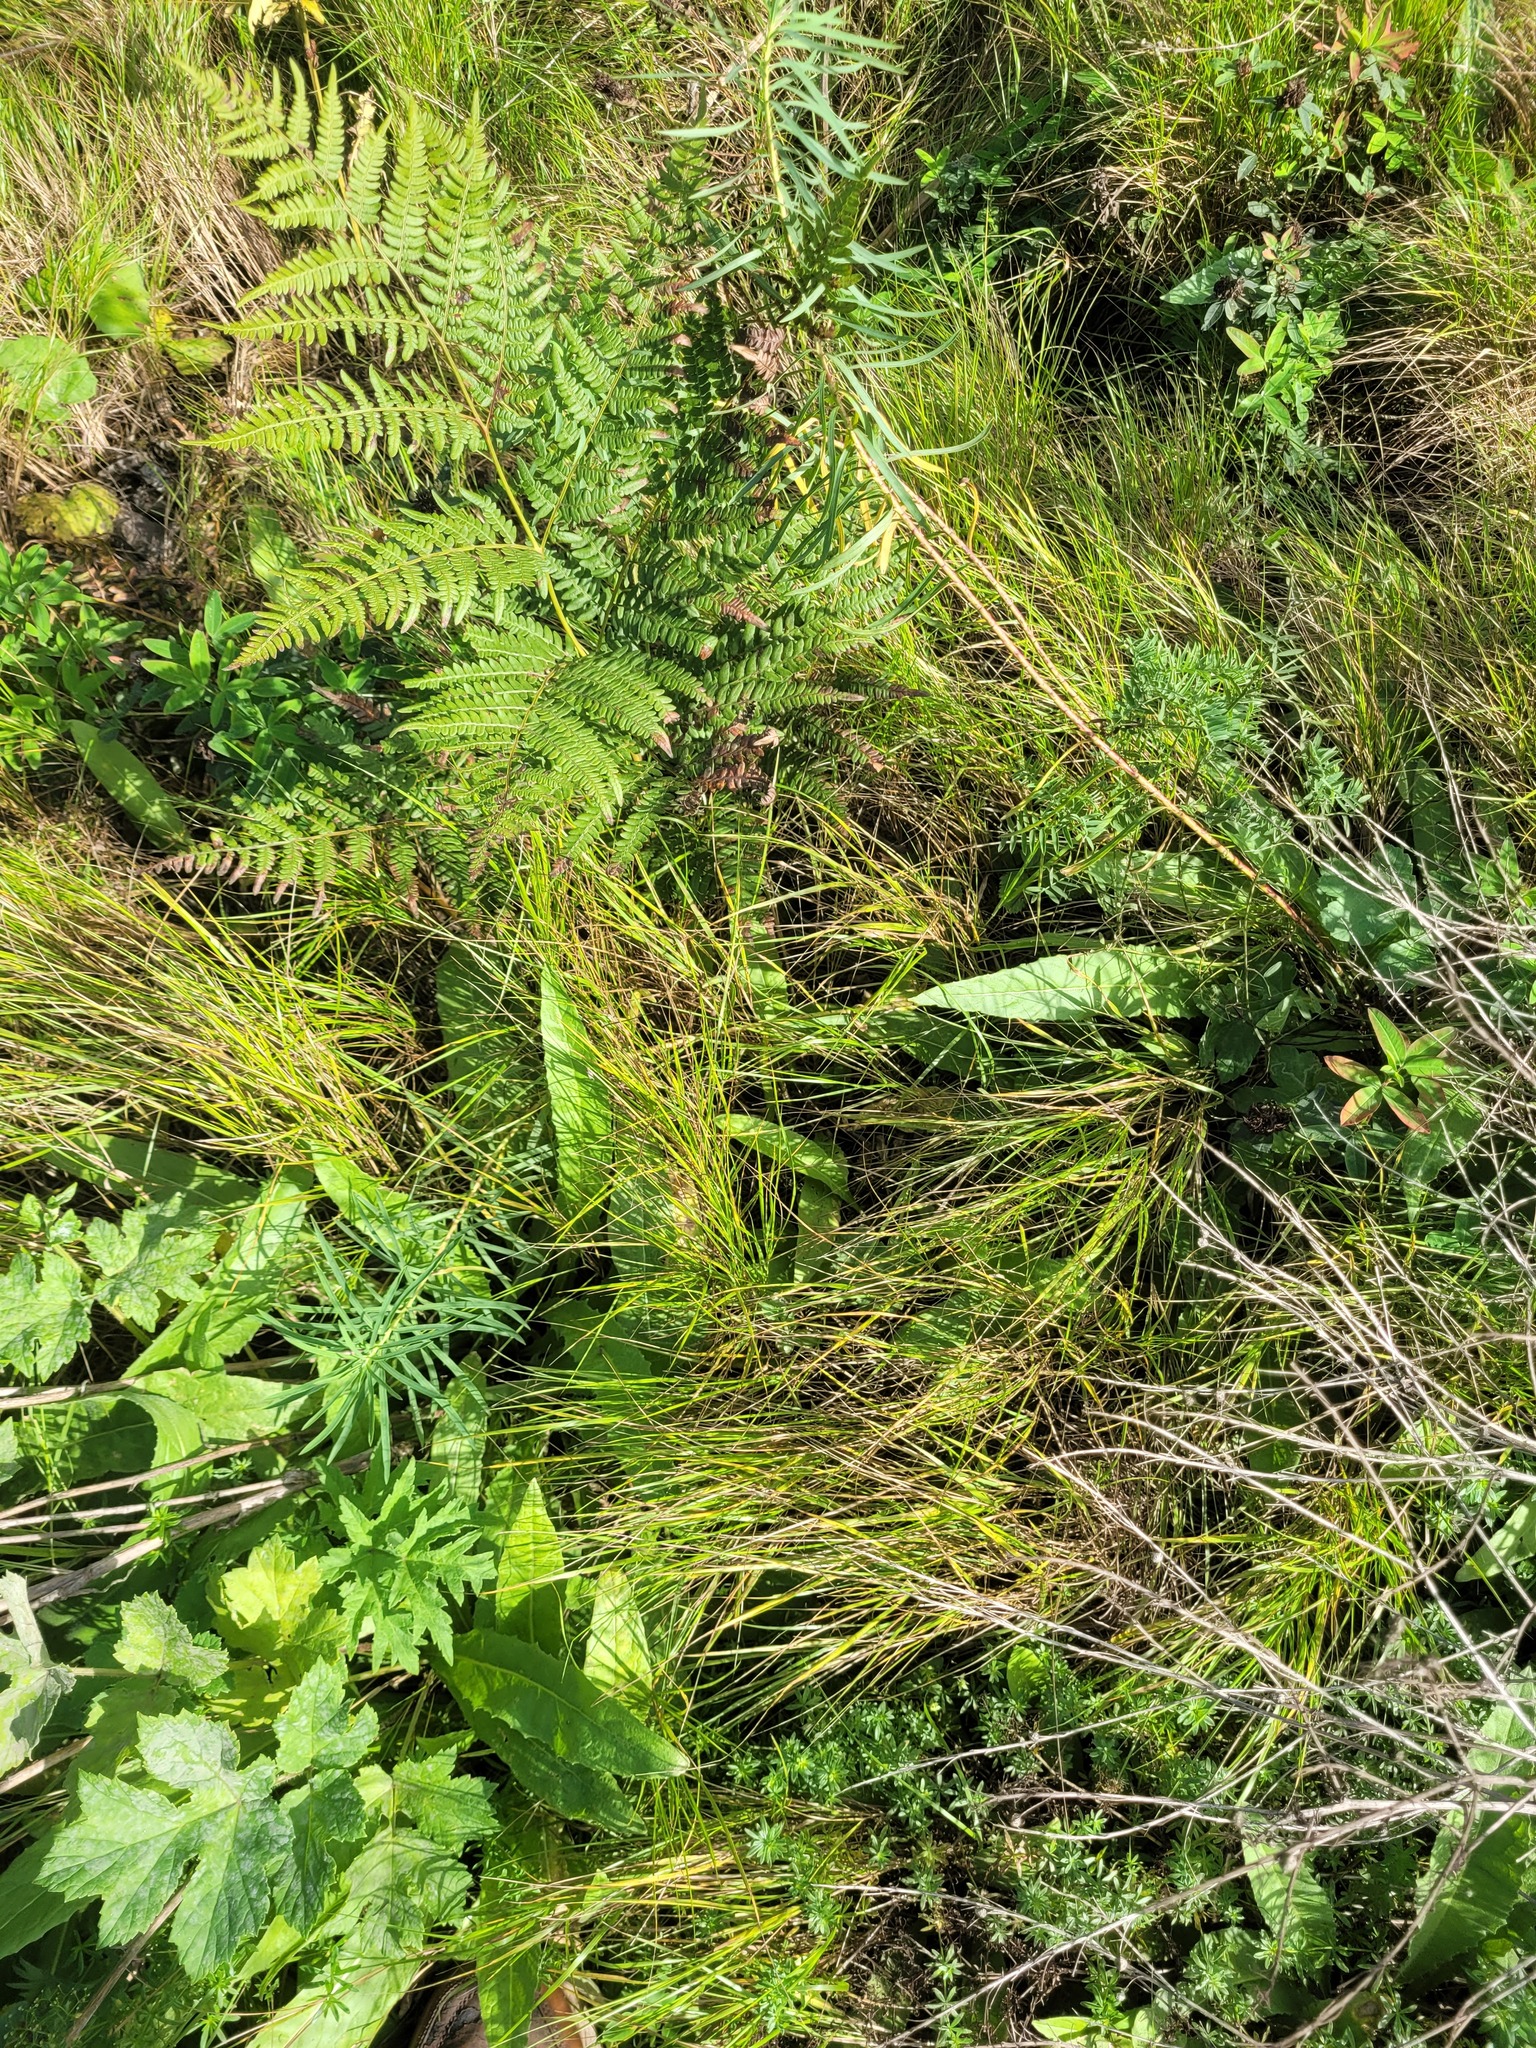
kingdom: Plantae
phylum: Tracheophyta
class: Liliopsida
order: Poales
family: Poaceae
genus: Calamagrostis
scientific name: Calamagrostis canescens
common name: Purple small-reed
